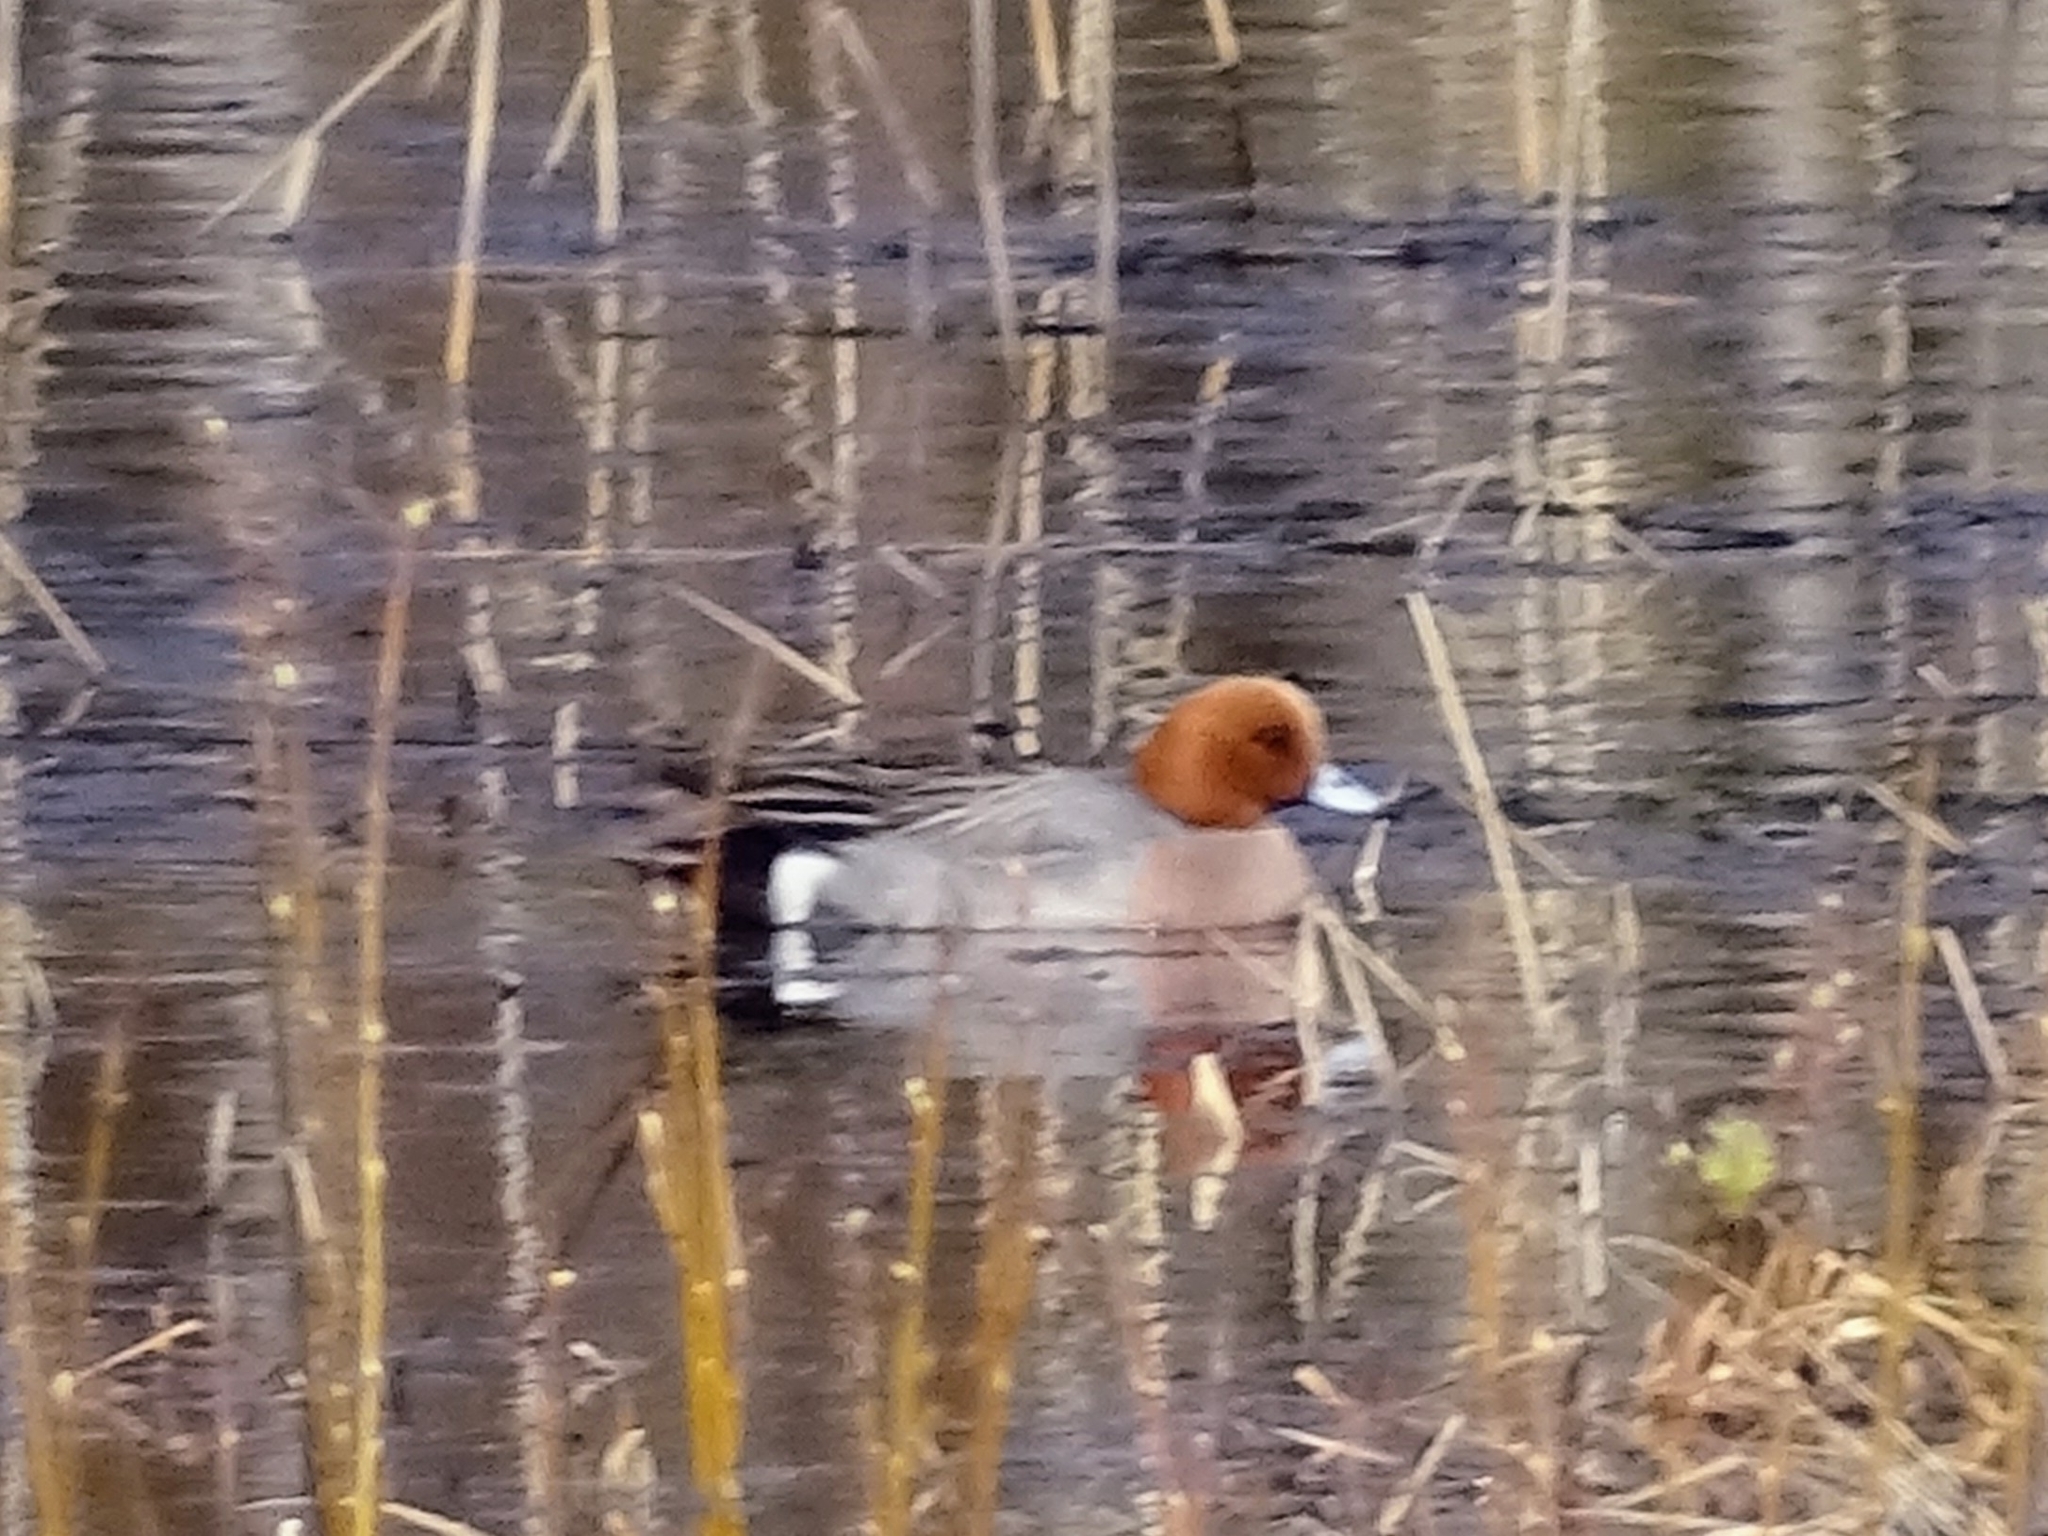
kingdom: Animalia
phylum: Chordata
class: Aves
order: Anseriformes
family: Anatidae
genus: Mareca
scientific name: Mareca penelope
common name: Eurasian wigeon
